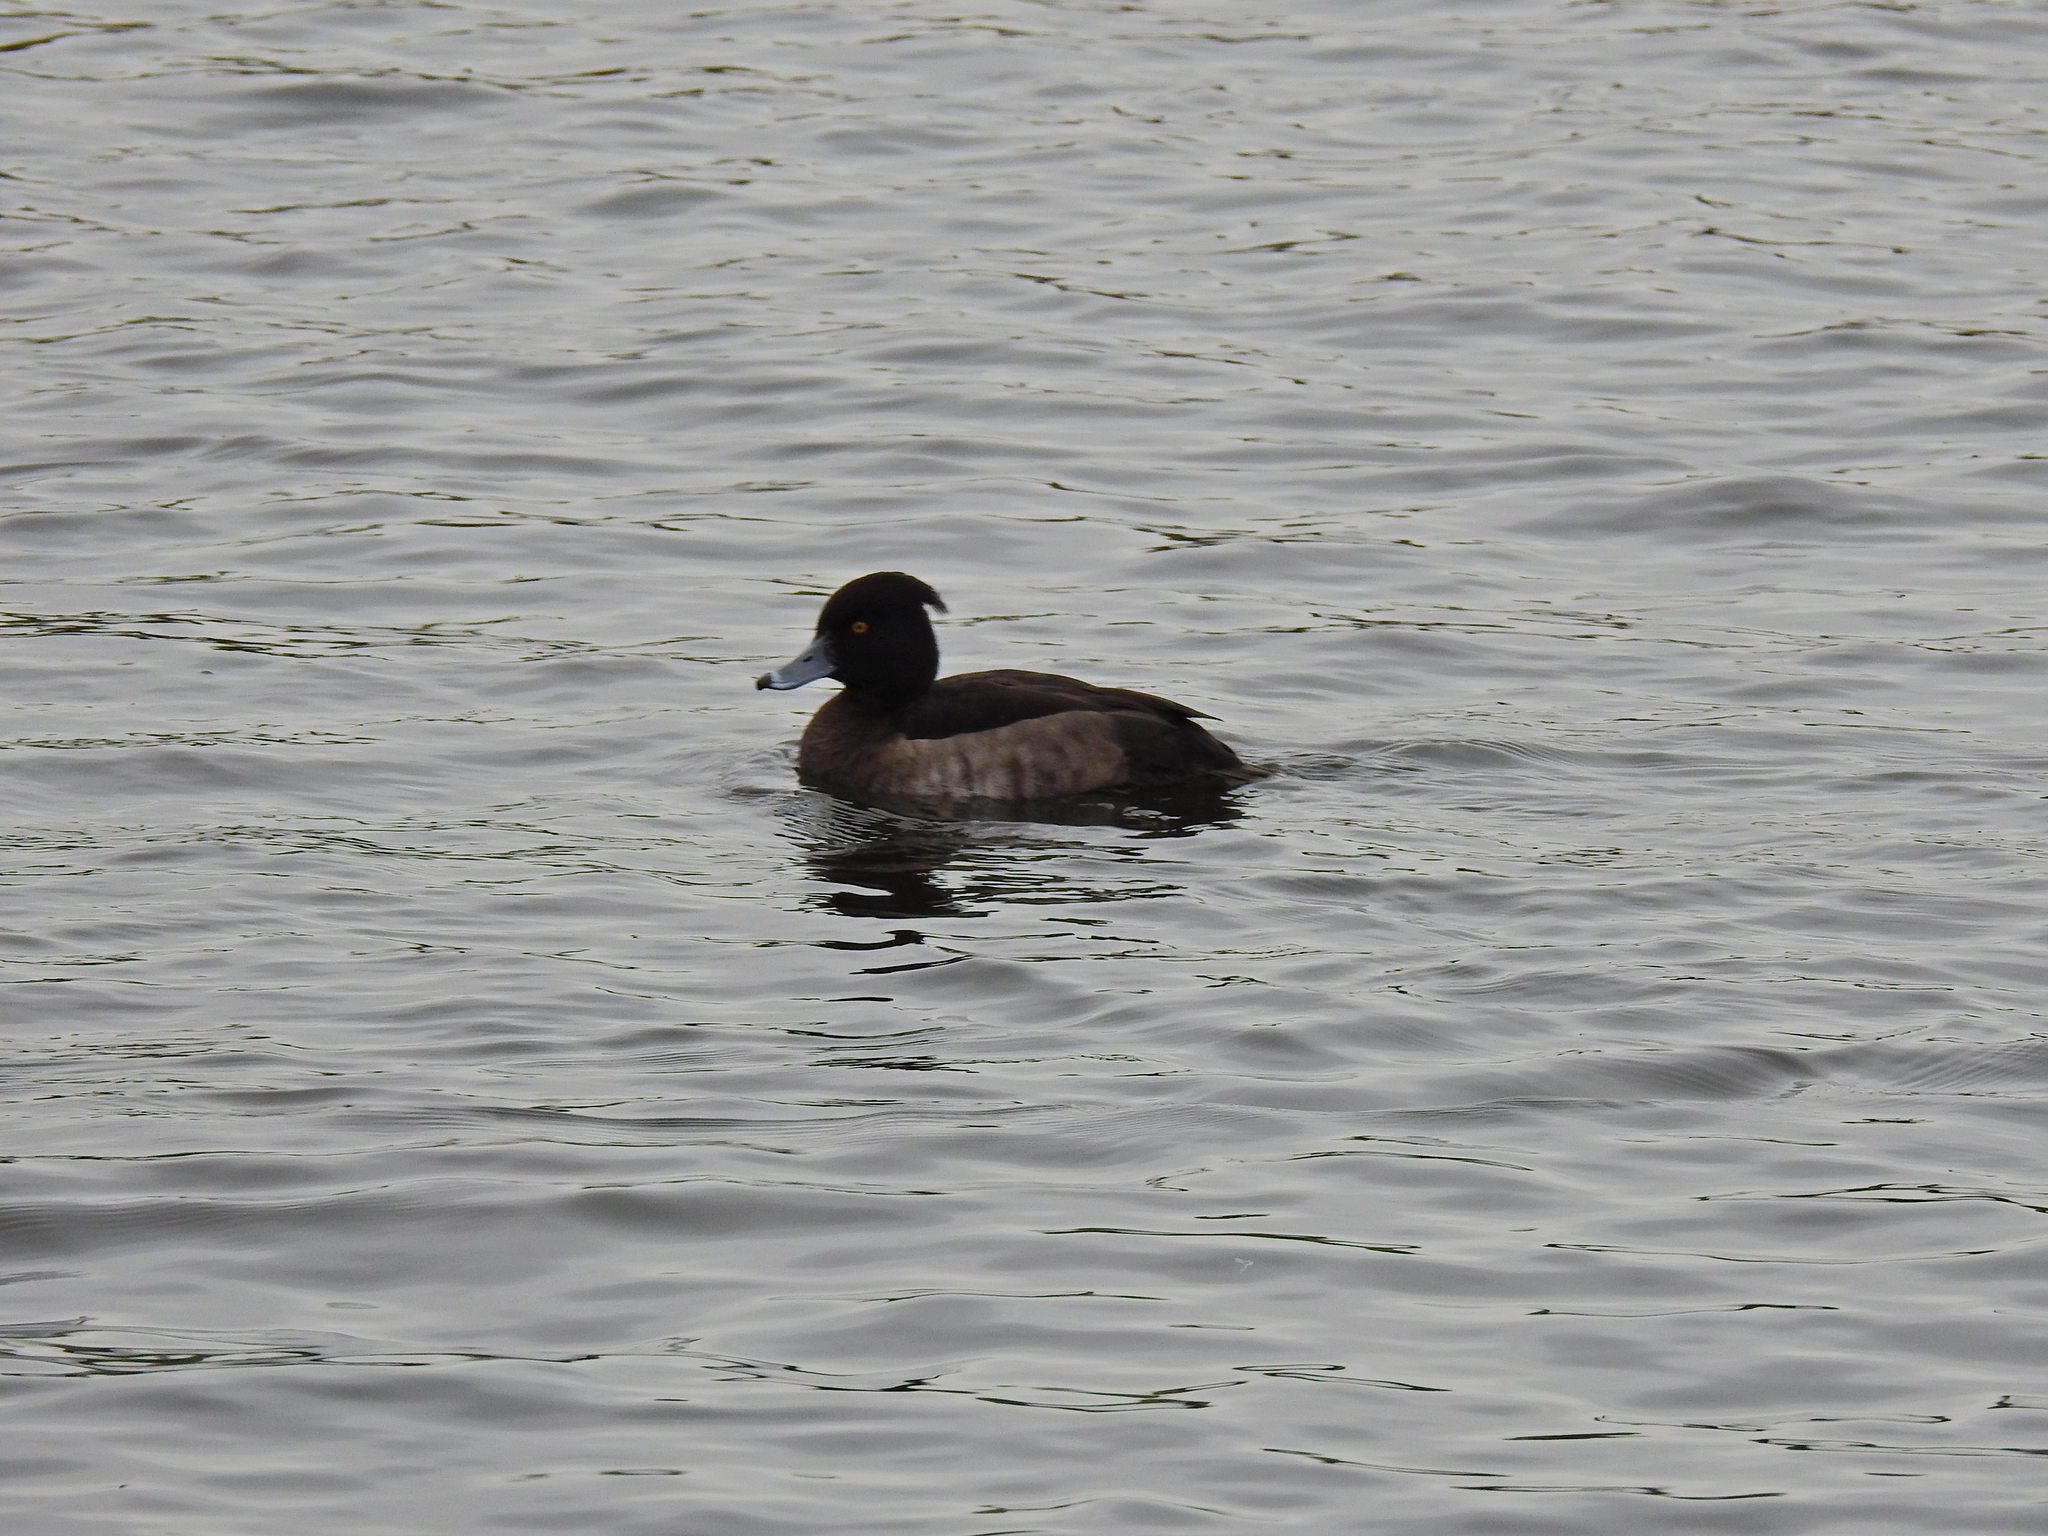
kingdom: Animalia
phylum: Chordata
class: Aves
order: Anseriformes
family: Anatidae
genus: Aythya
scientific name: Aythya fuligula
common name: Tufted duck
